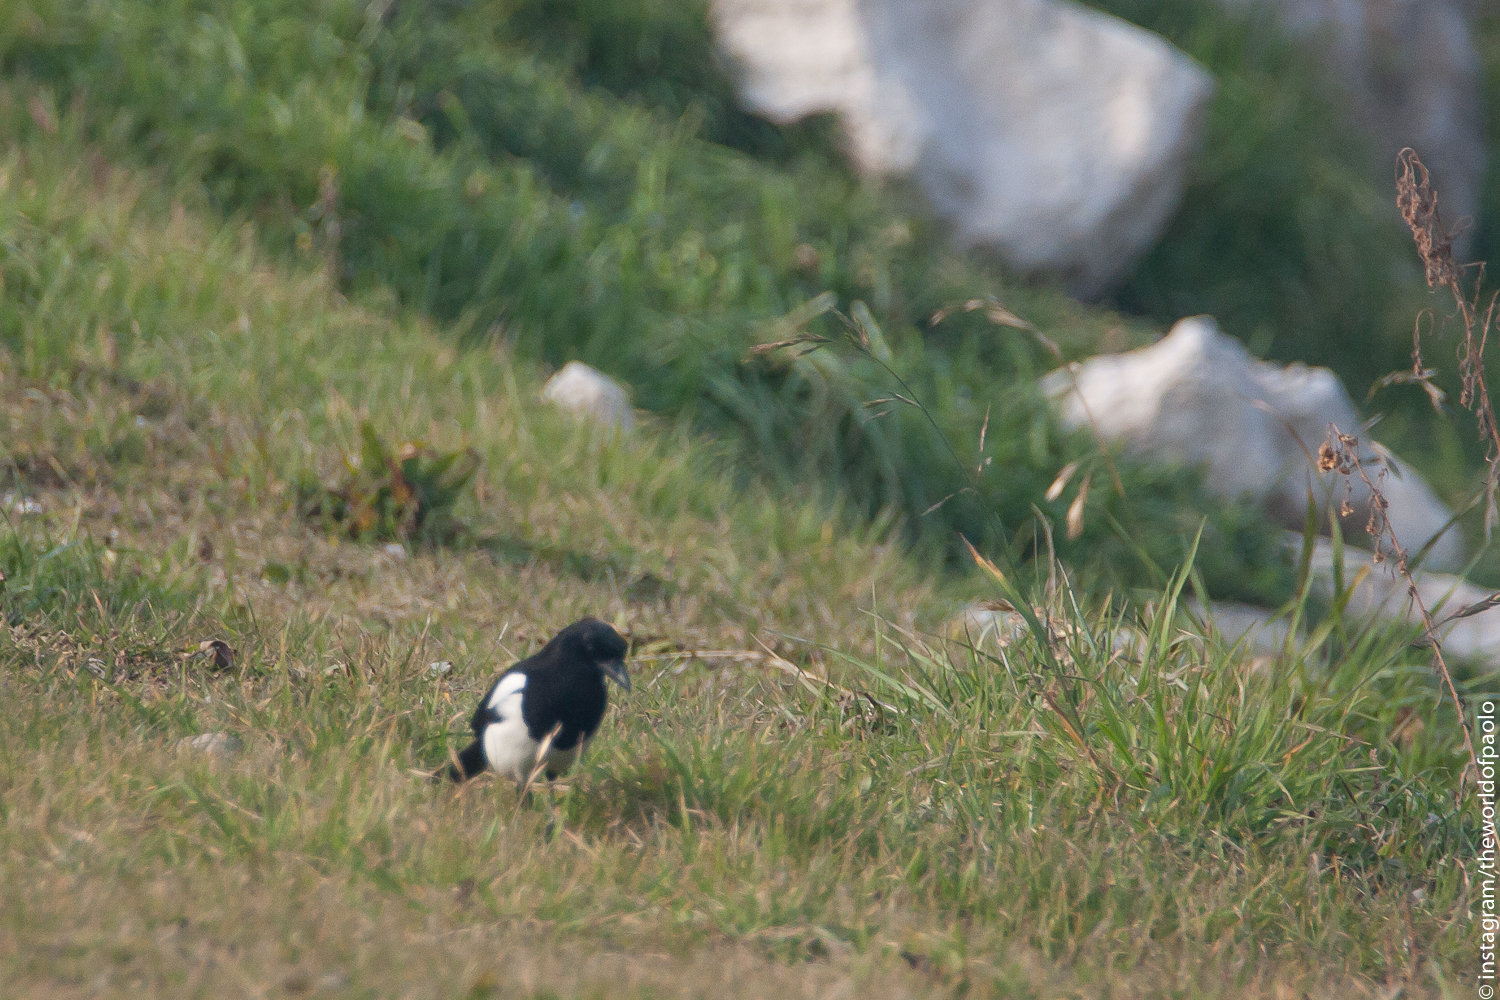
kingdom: Animalia
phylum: Chordata
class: Aves
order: Passeriformes
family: Corvidae
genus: Pica
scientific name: Pica pica
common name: Eurasian magpie
